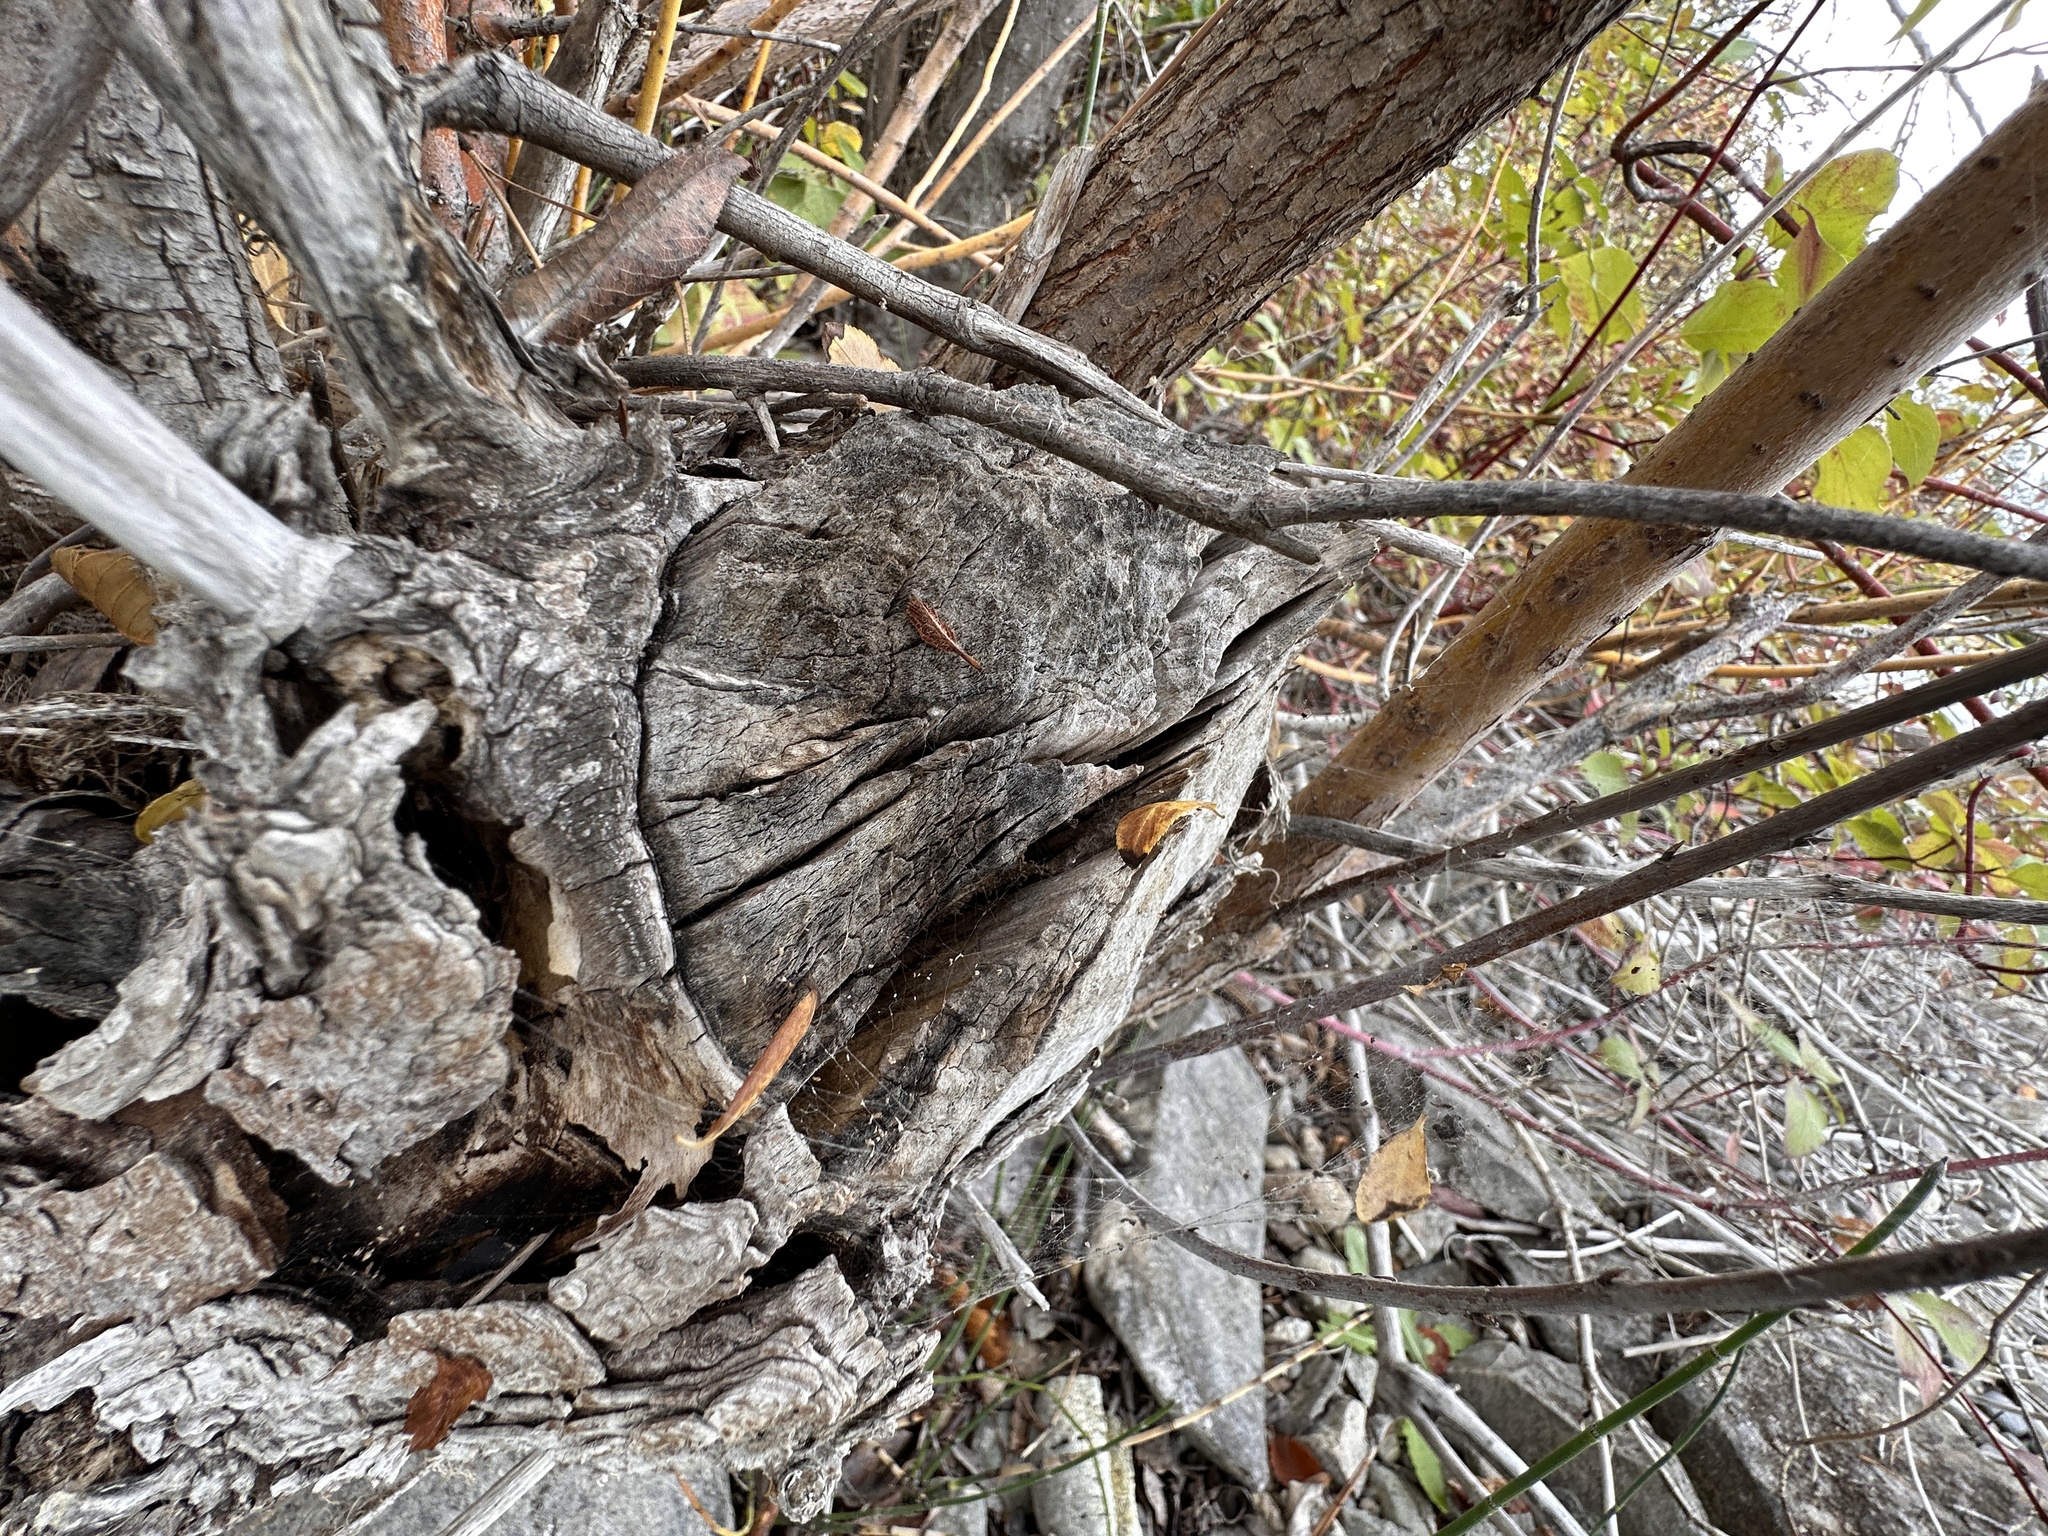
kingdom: Animalia
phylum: Chordata
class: Mammalia
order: Rodentia
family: Castoridae
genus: Castor
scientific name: Castor canadensis
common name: American beaver
